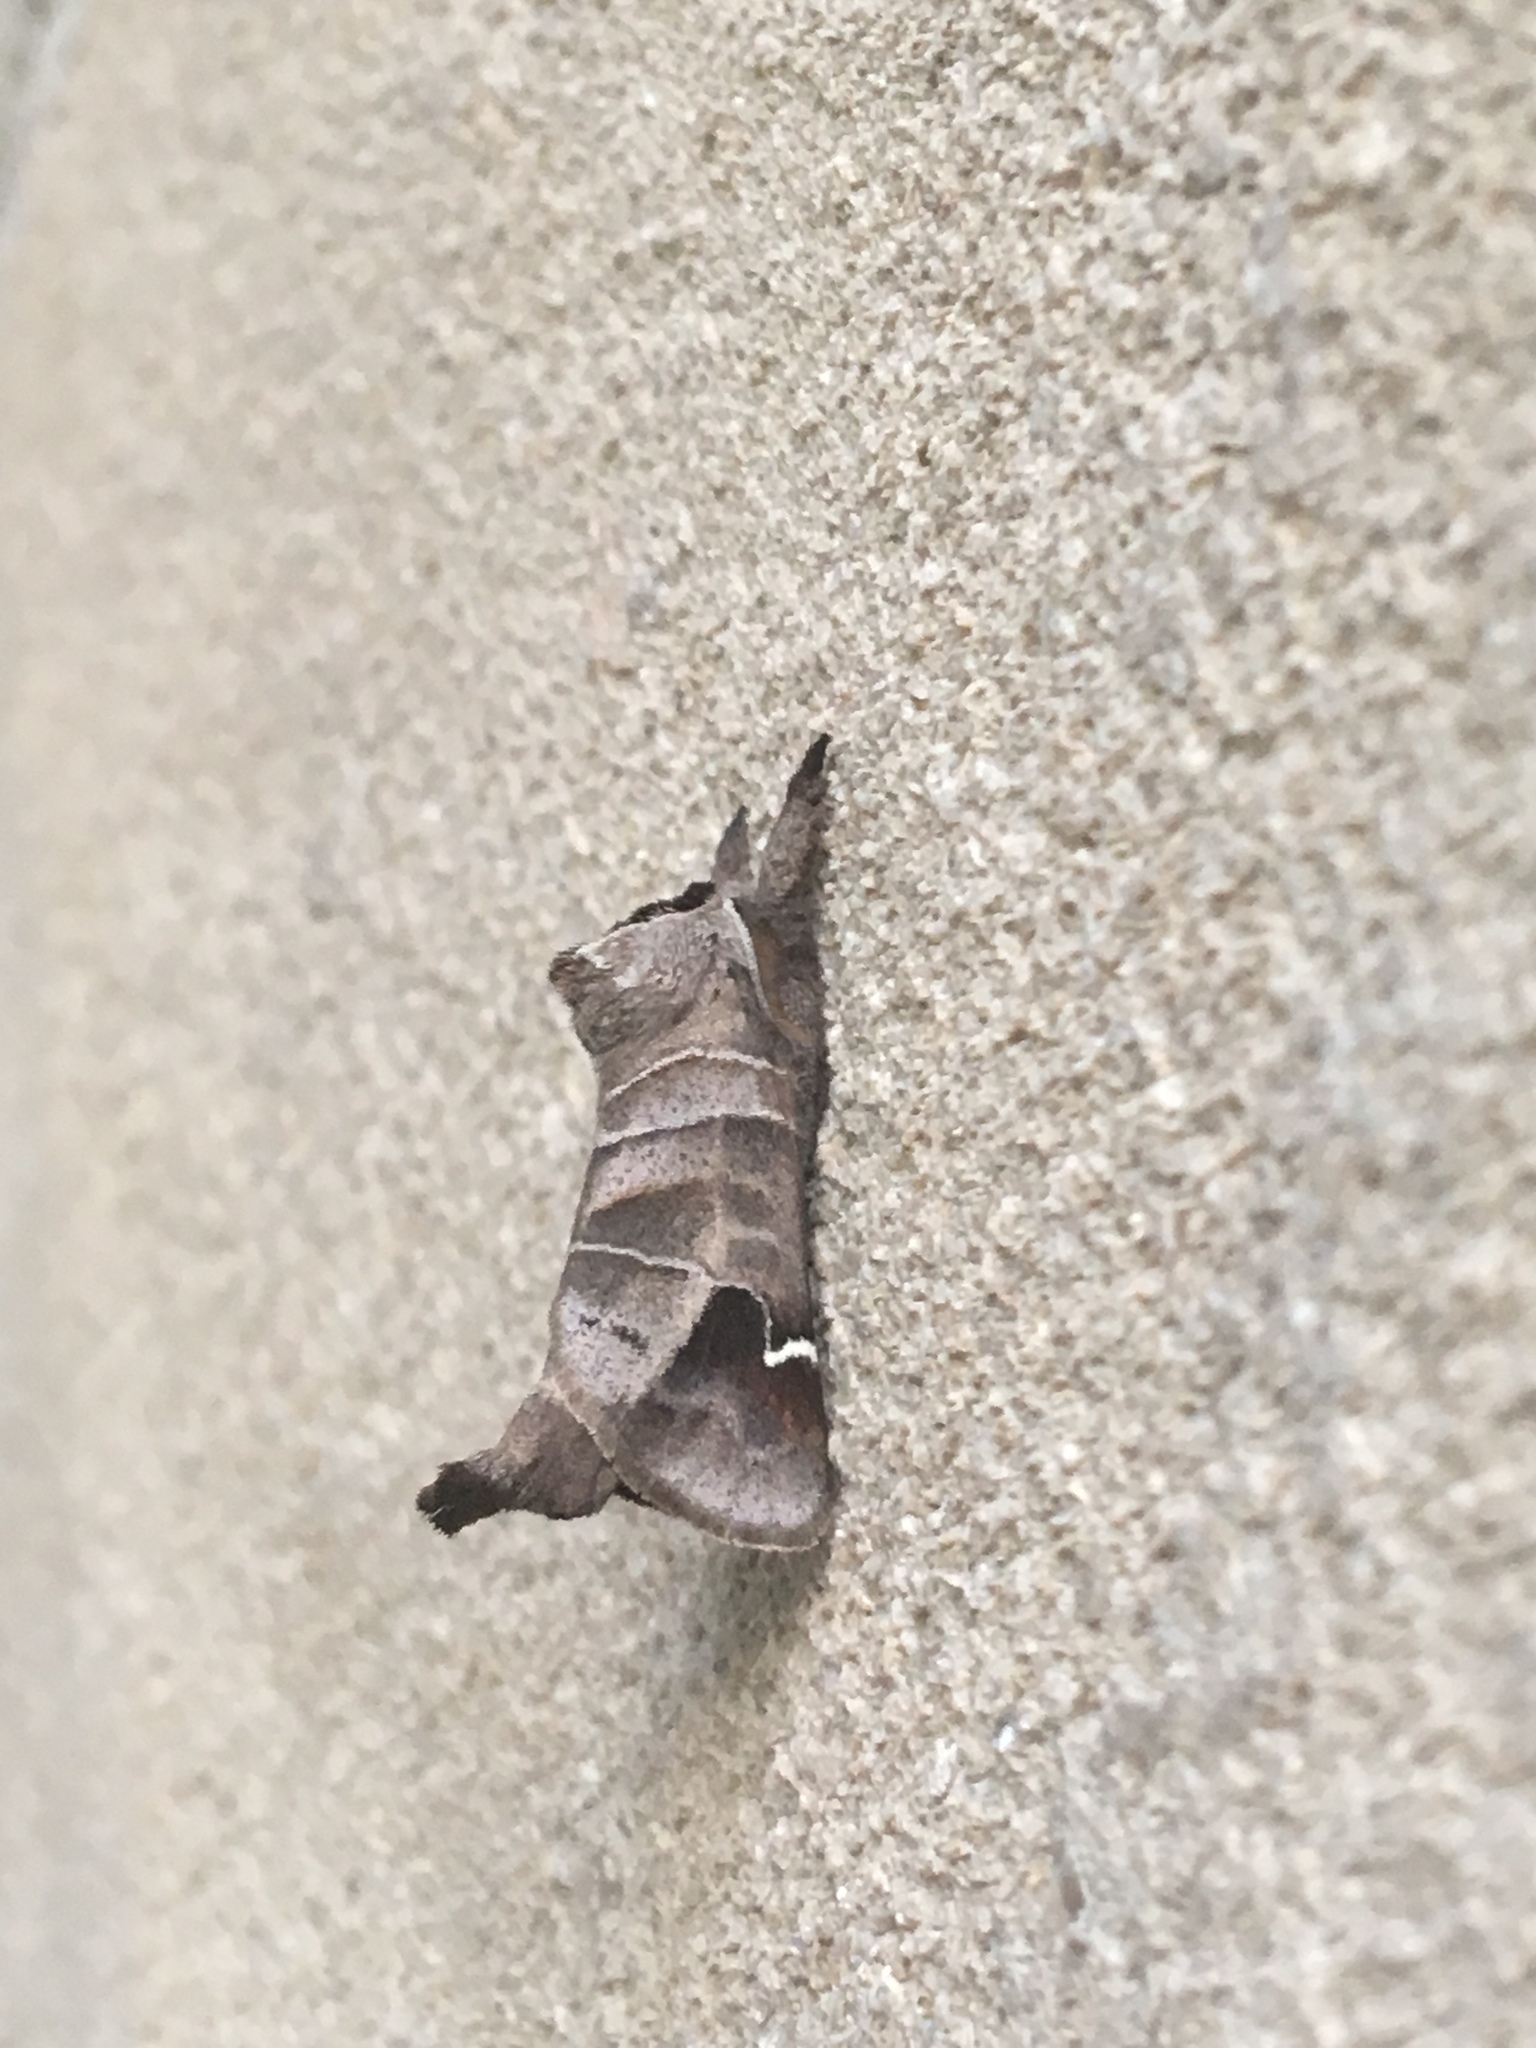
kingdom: Animalia
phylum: Arthropoda
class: Insecta
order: Lepidoptera
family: Notodontidae
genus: Clostera
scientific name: Clostera albosigma
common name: Sigmoid prominent
